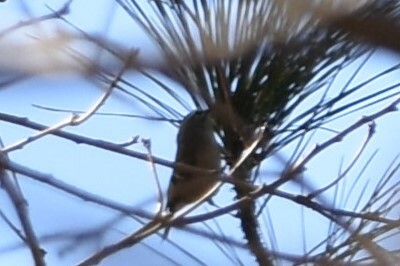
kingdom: Animalia
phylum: Chordata
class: Aves
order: Passeriformes
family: Regulidae
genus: Regulus
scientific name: Regulus calendula
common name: Ruby-crowned kinglet
